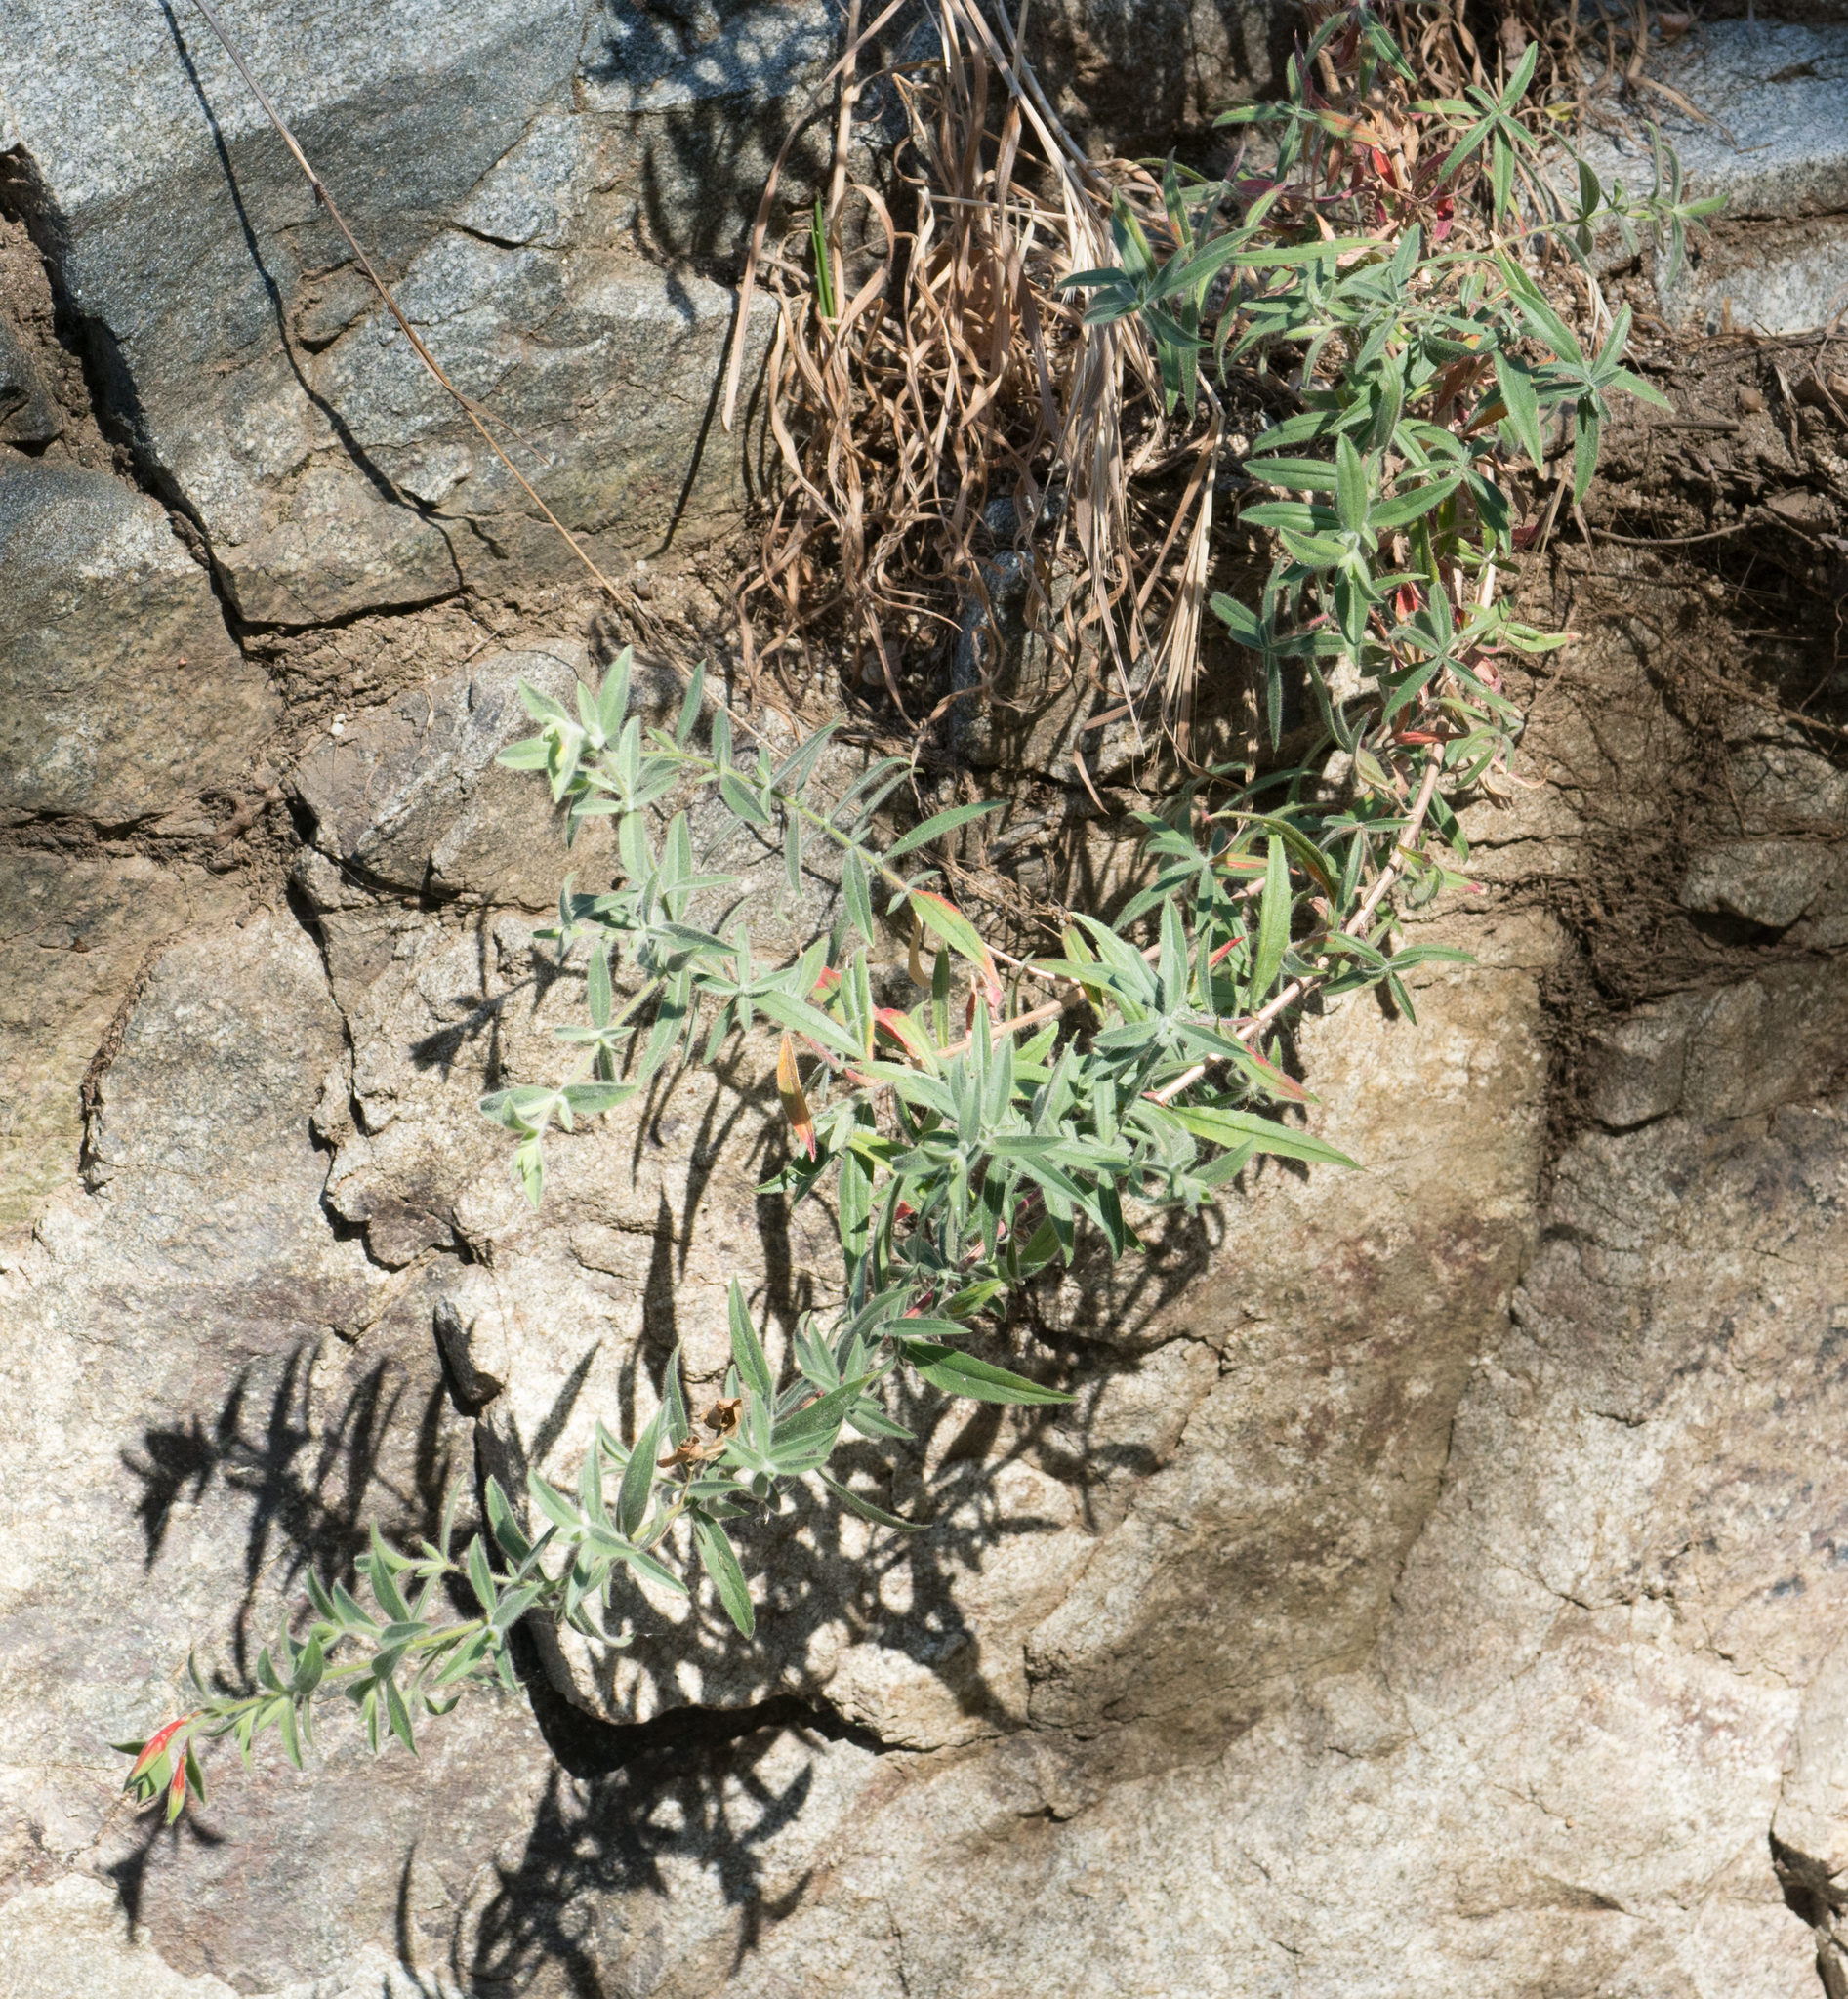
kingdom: Plantae
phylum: Tracheophyta
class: Magnoliopsida
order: Myrtales
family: Onagraceae
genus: Epilobium
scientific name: Epilobium canum
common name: California-fuchsia
